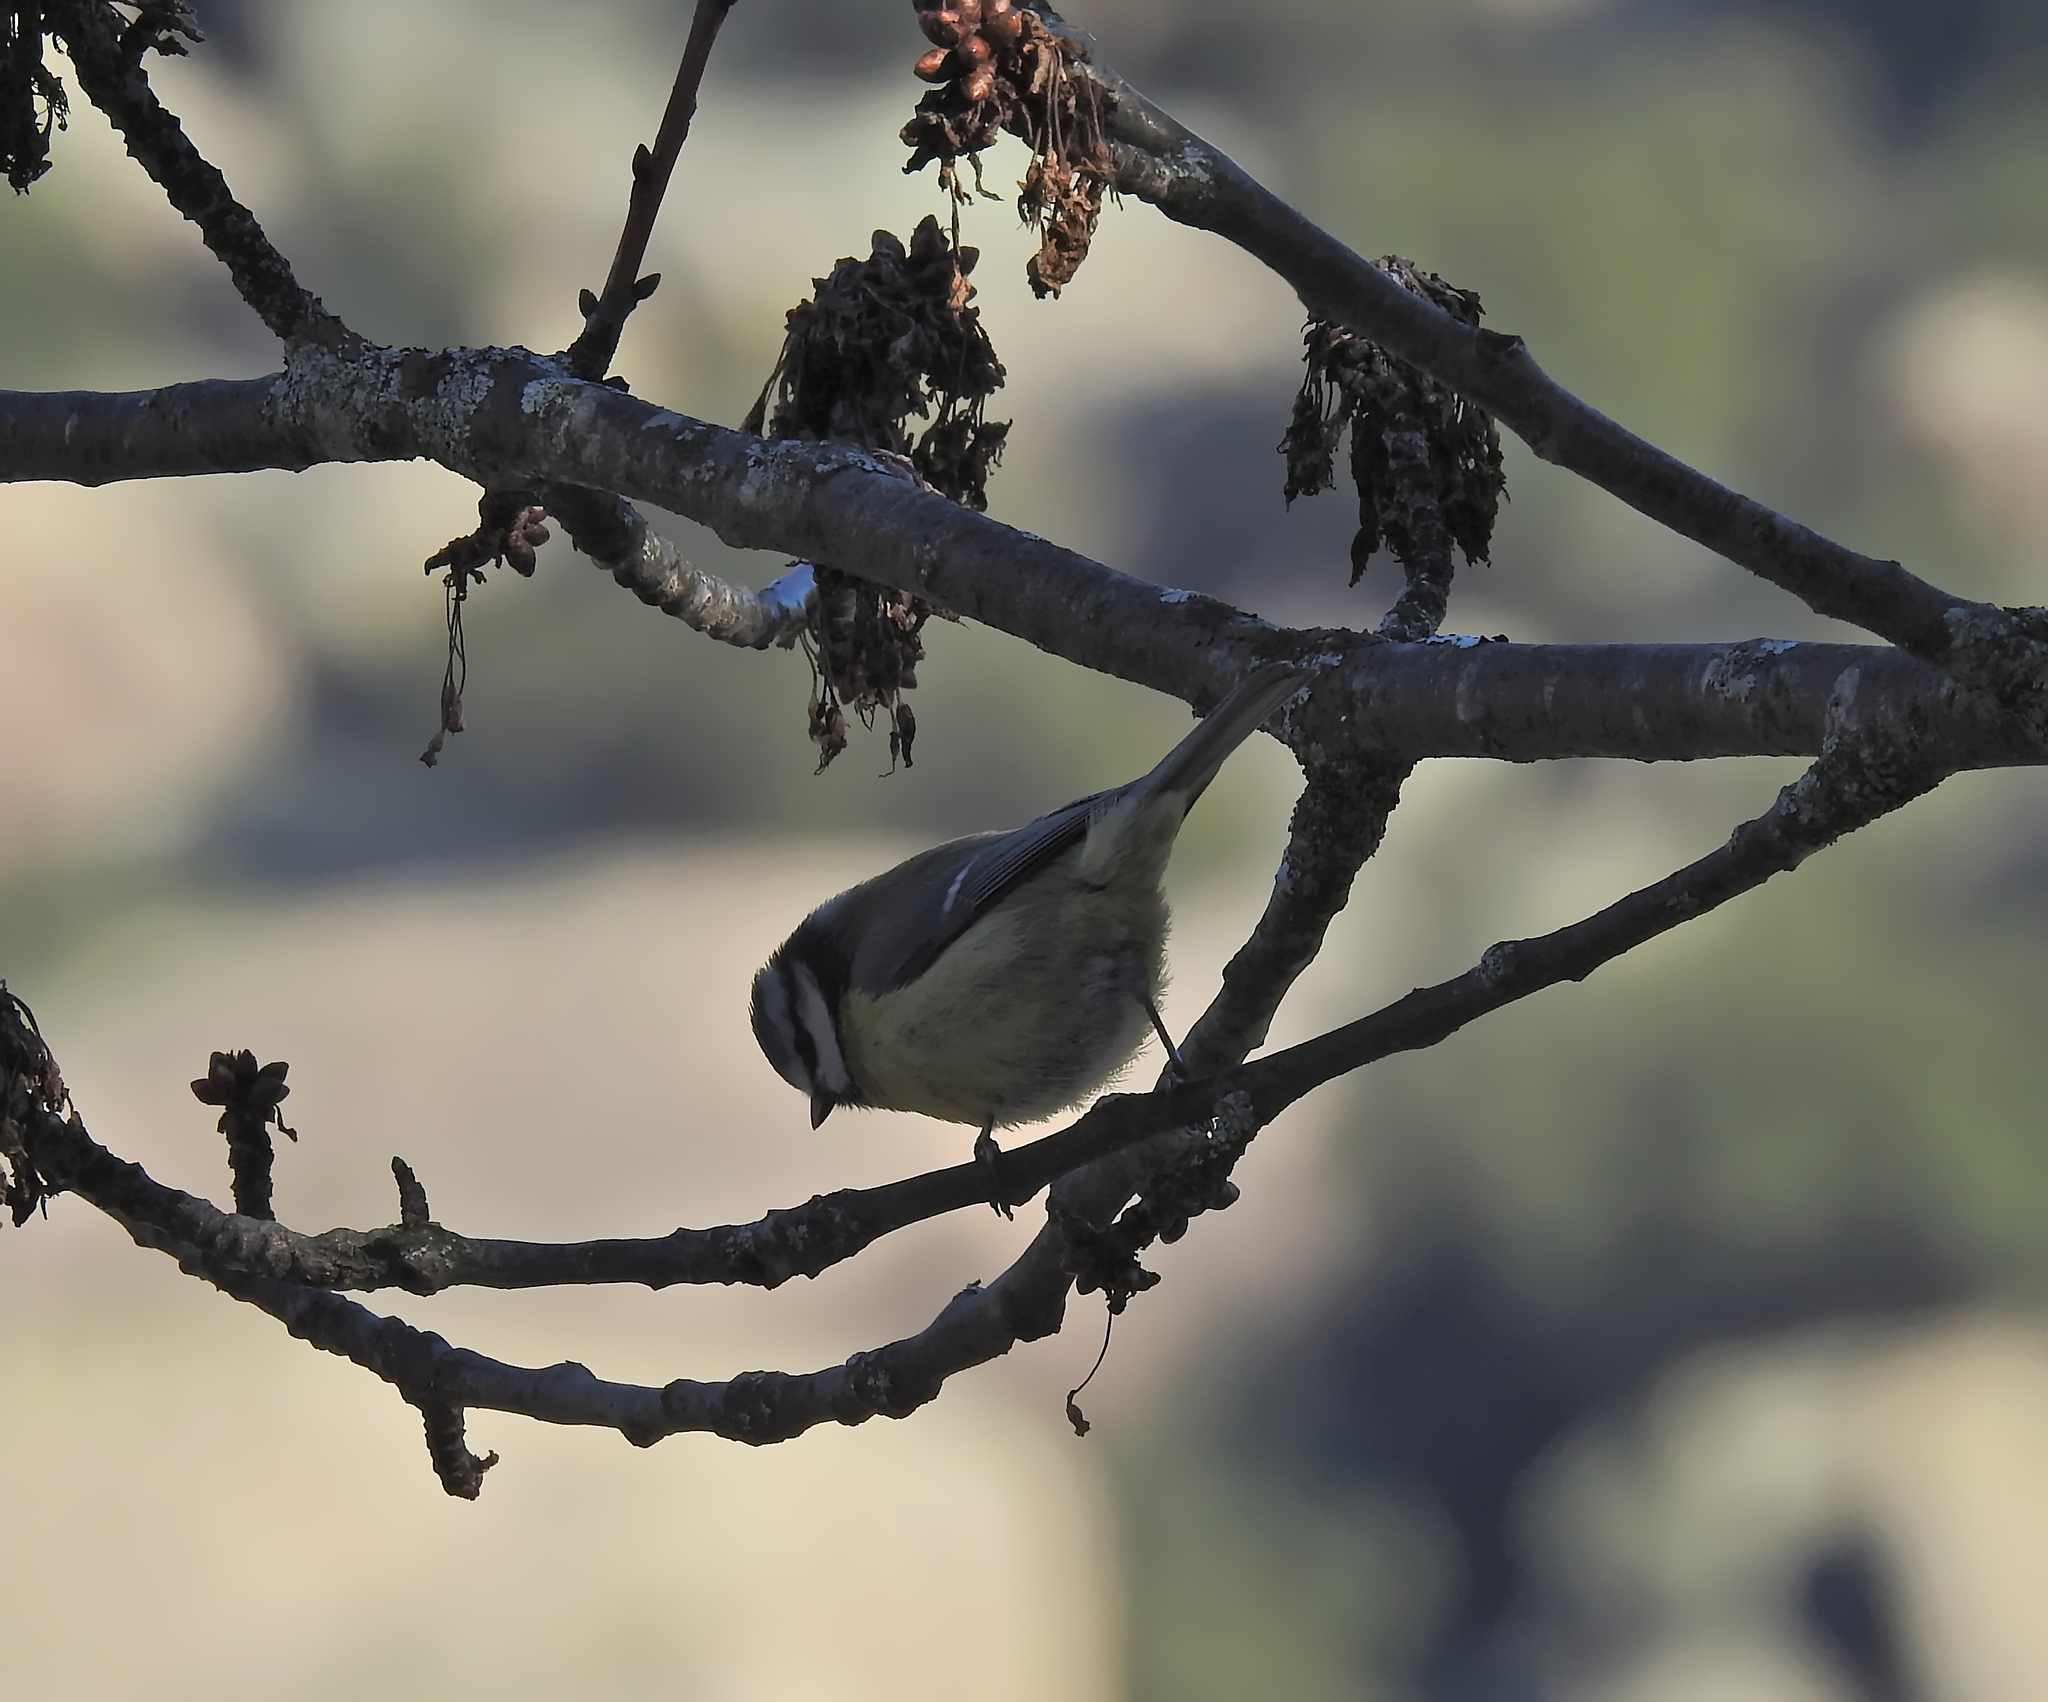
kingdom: Animalia
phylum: Chordata
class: Aves
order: Passeriformes
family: Paridae
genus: Cyanistes
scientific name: Cyanistes caeruleus
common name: Eurasian blue tit
